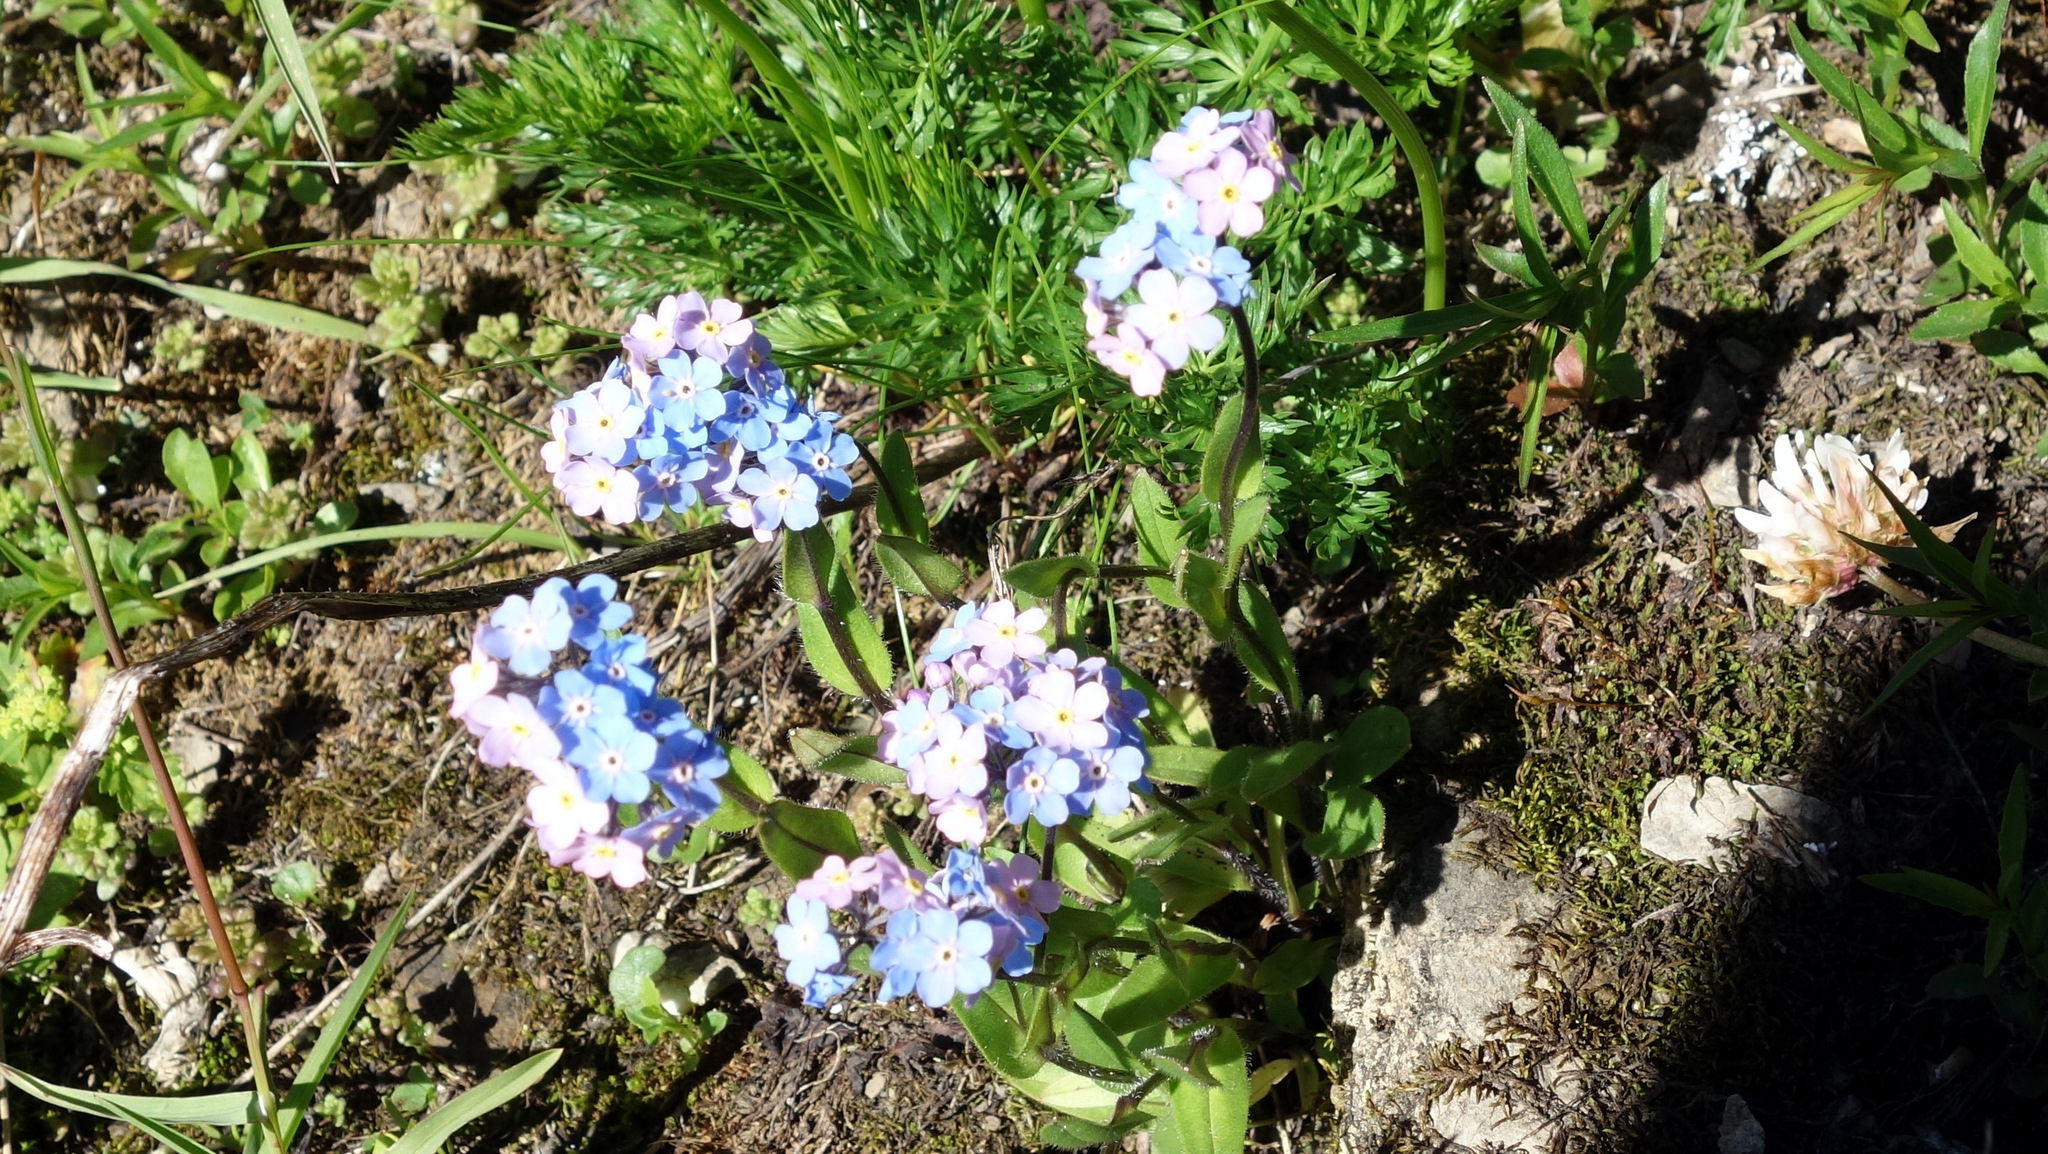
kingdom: Plantae
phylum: Tracheophyta
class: Magnoliopsida
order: Boraginales
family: Boraginaceae
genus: Myosotis
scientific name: Myosotis alpestris
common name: Alpine forget-me-not
